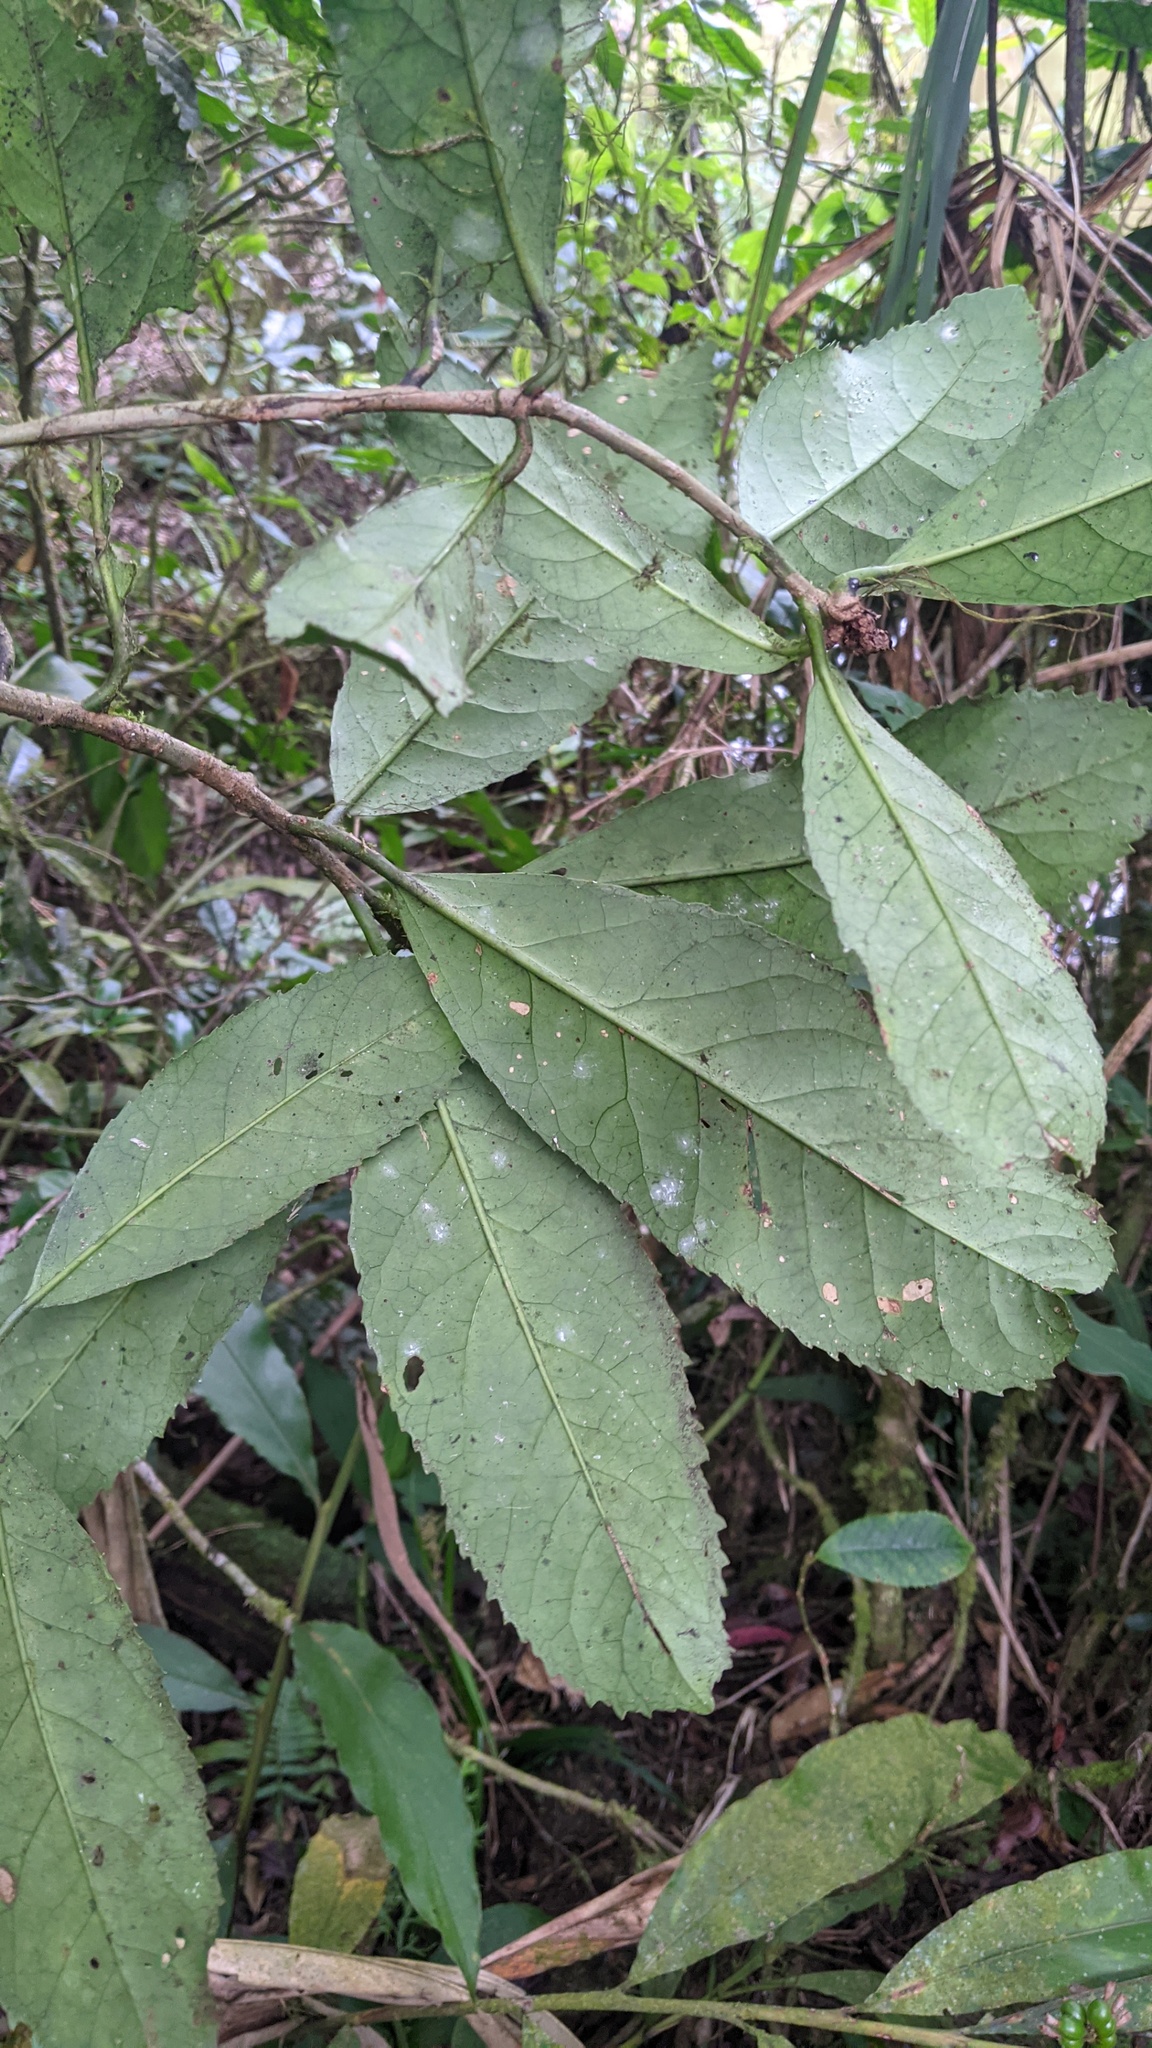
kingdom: Plantae
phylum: Tracheophyta
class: Magnoliopsida
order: Ericales
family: Symplocaceae
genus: Symplocos
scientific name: Symplocos acuminata
